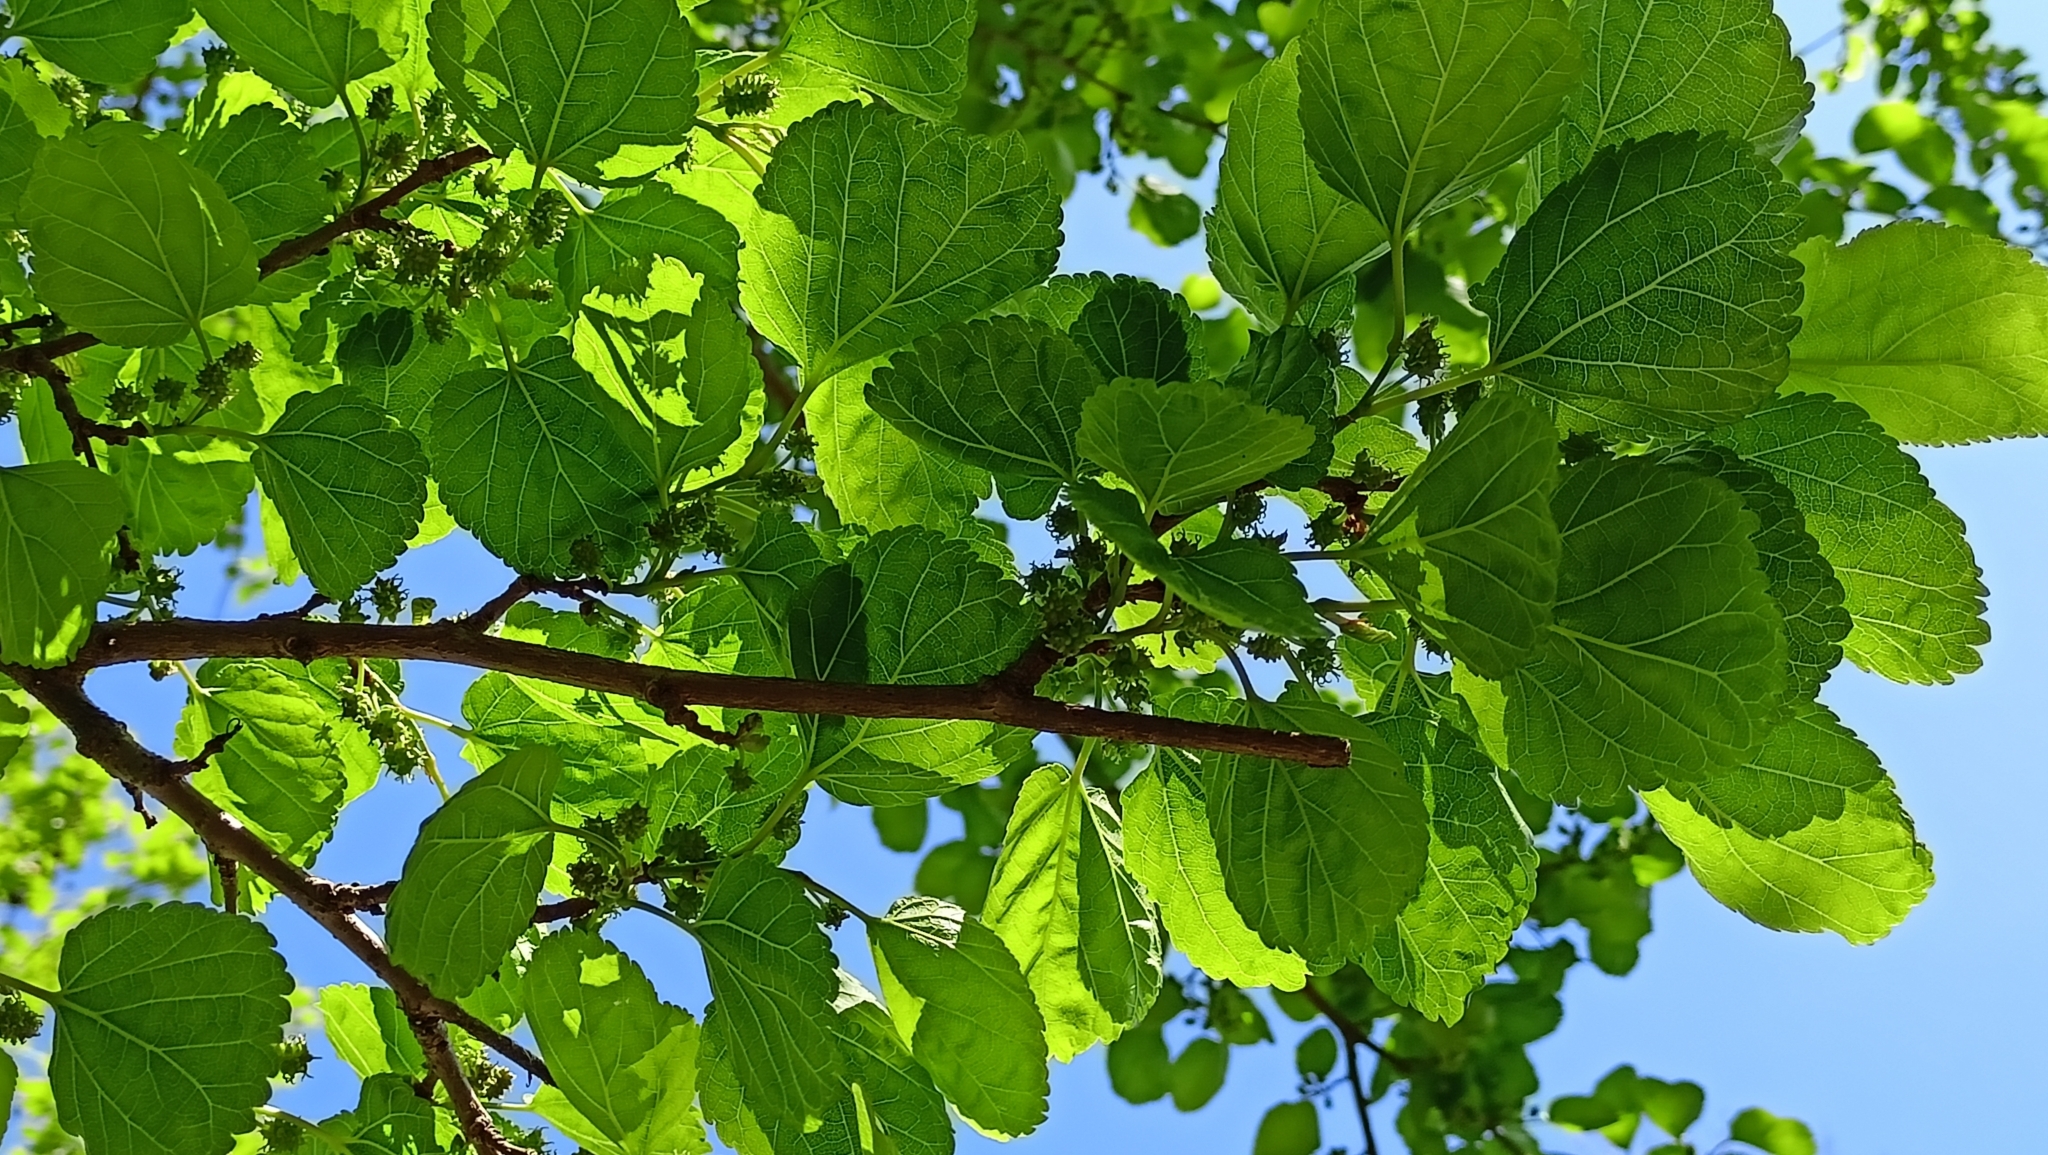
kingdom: Plantae
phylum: Tracheophyta
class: Magnoliopsida
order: Rosales
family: Moraceae
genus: Morus
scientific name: Morus alba
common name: White mulberry
